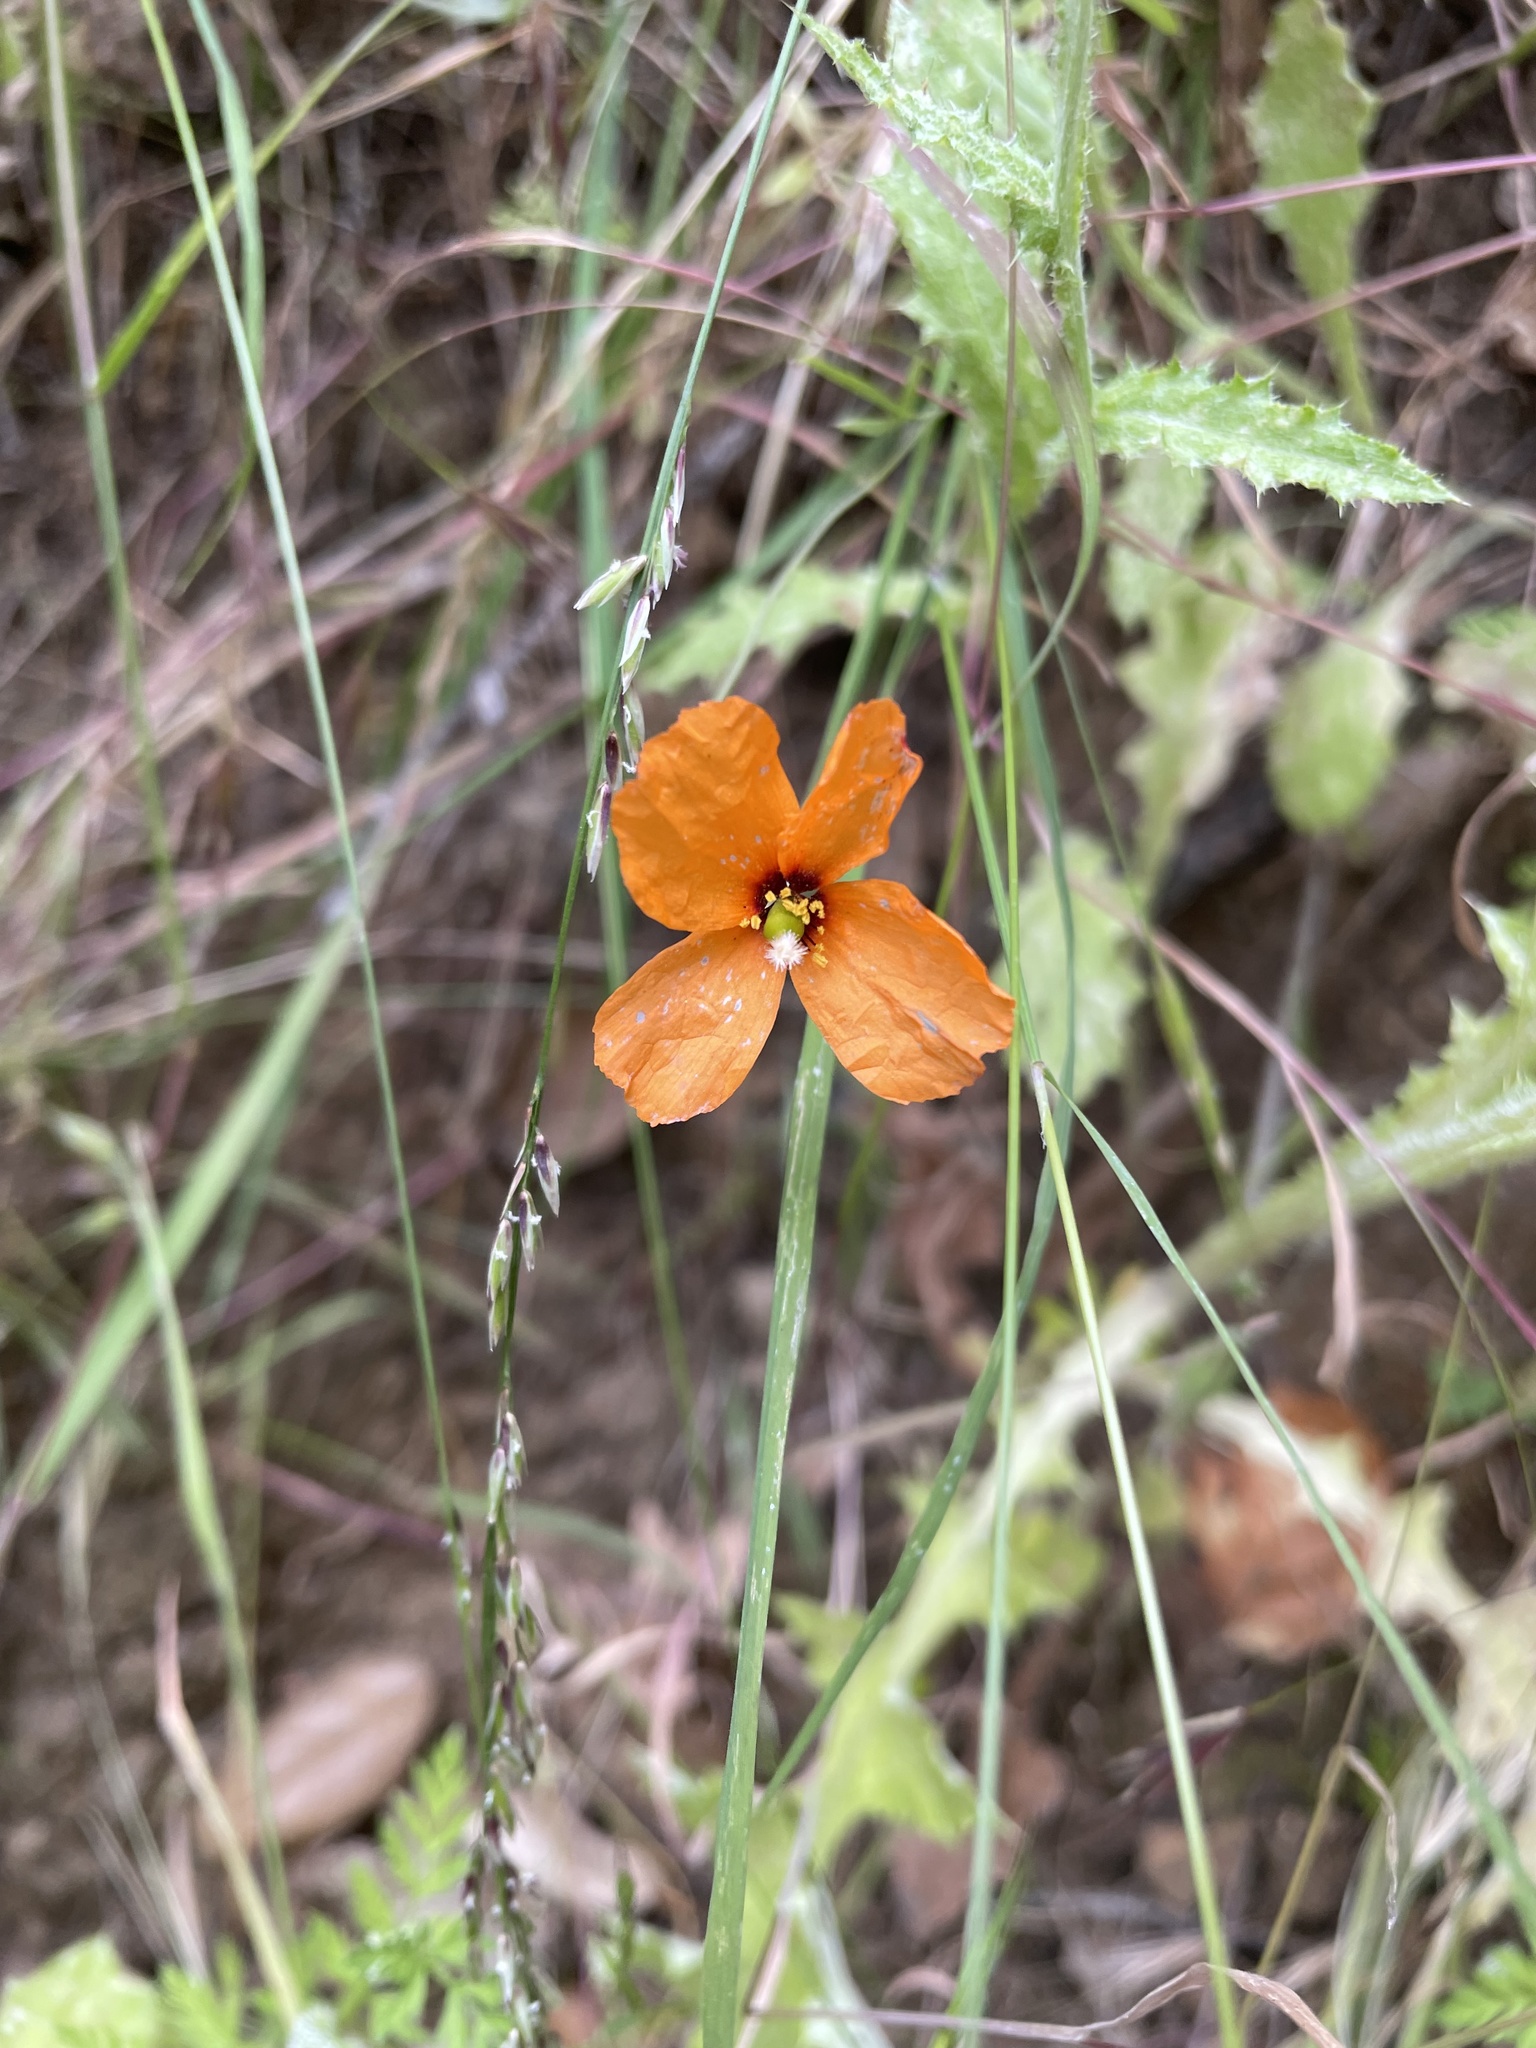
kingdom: Plantae
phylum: Tracheophyta
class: Magnoliopsida
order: Ranunculales
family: Papaveraceae
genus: Stylomecon
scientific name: Stylomecon heterophylla
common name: Flaming-poppy
